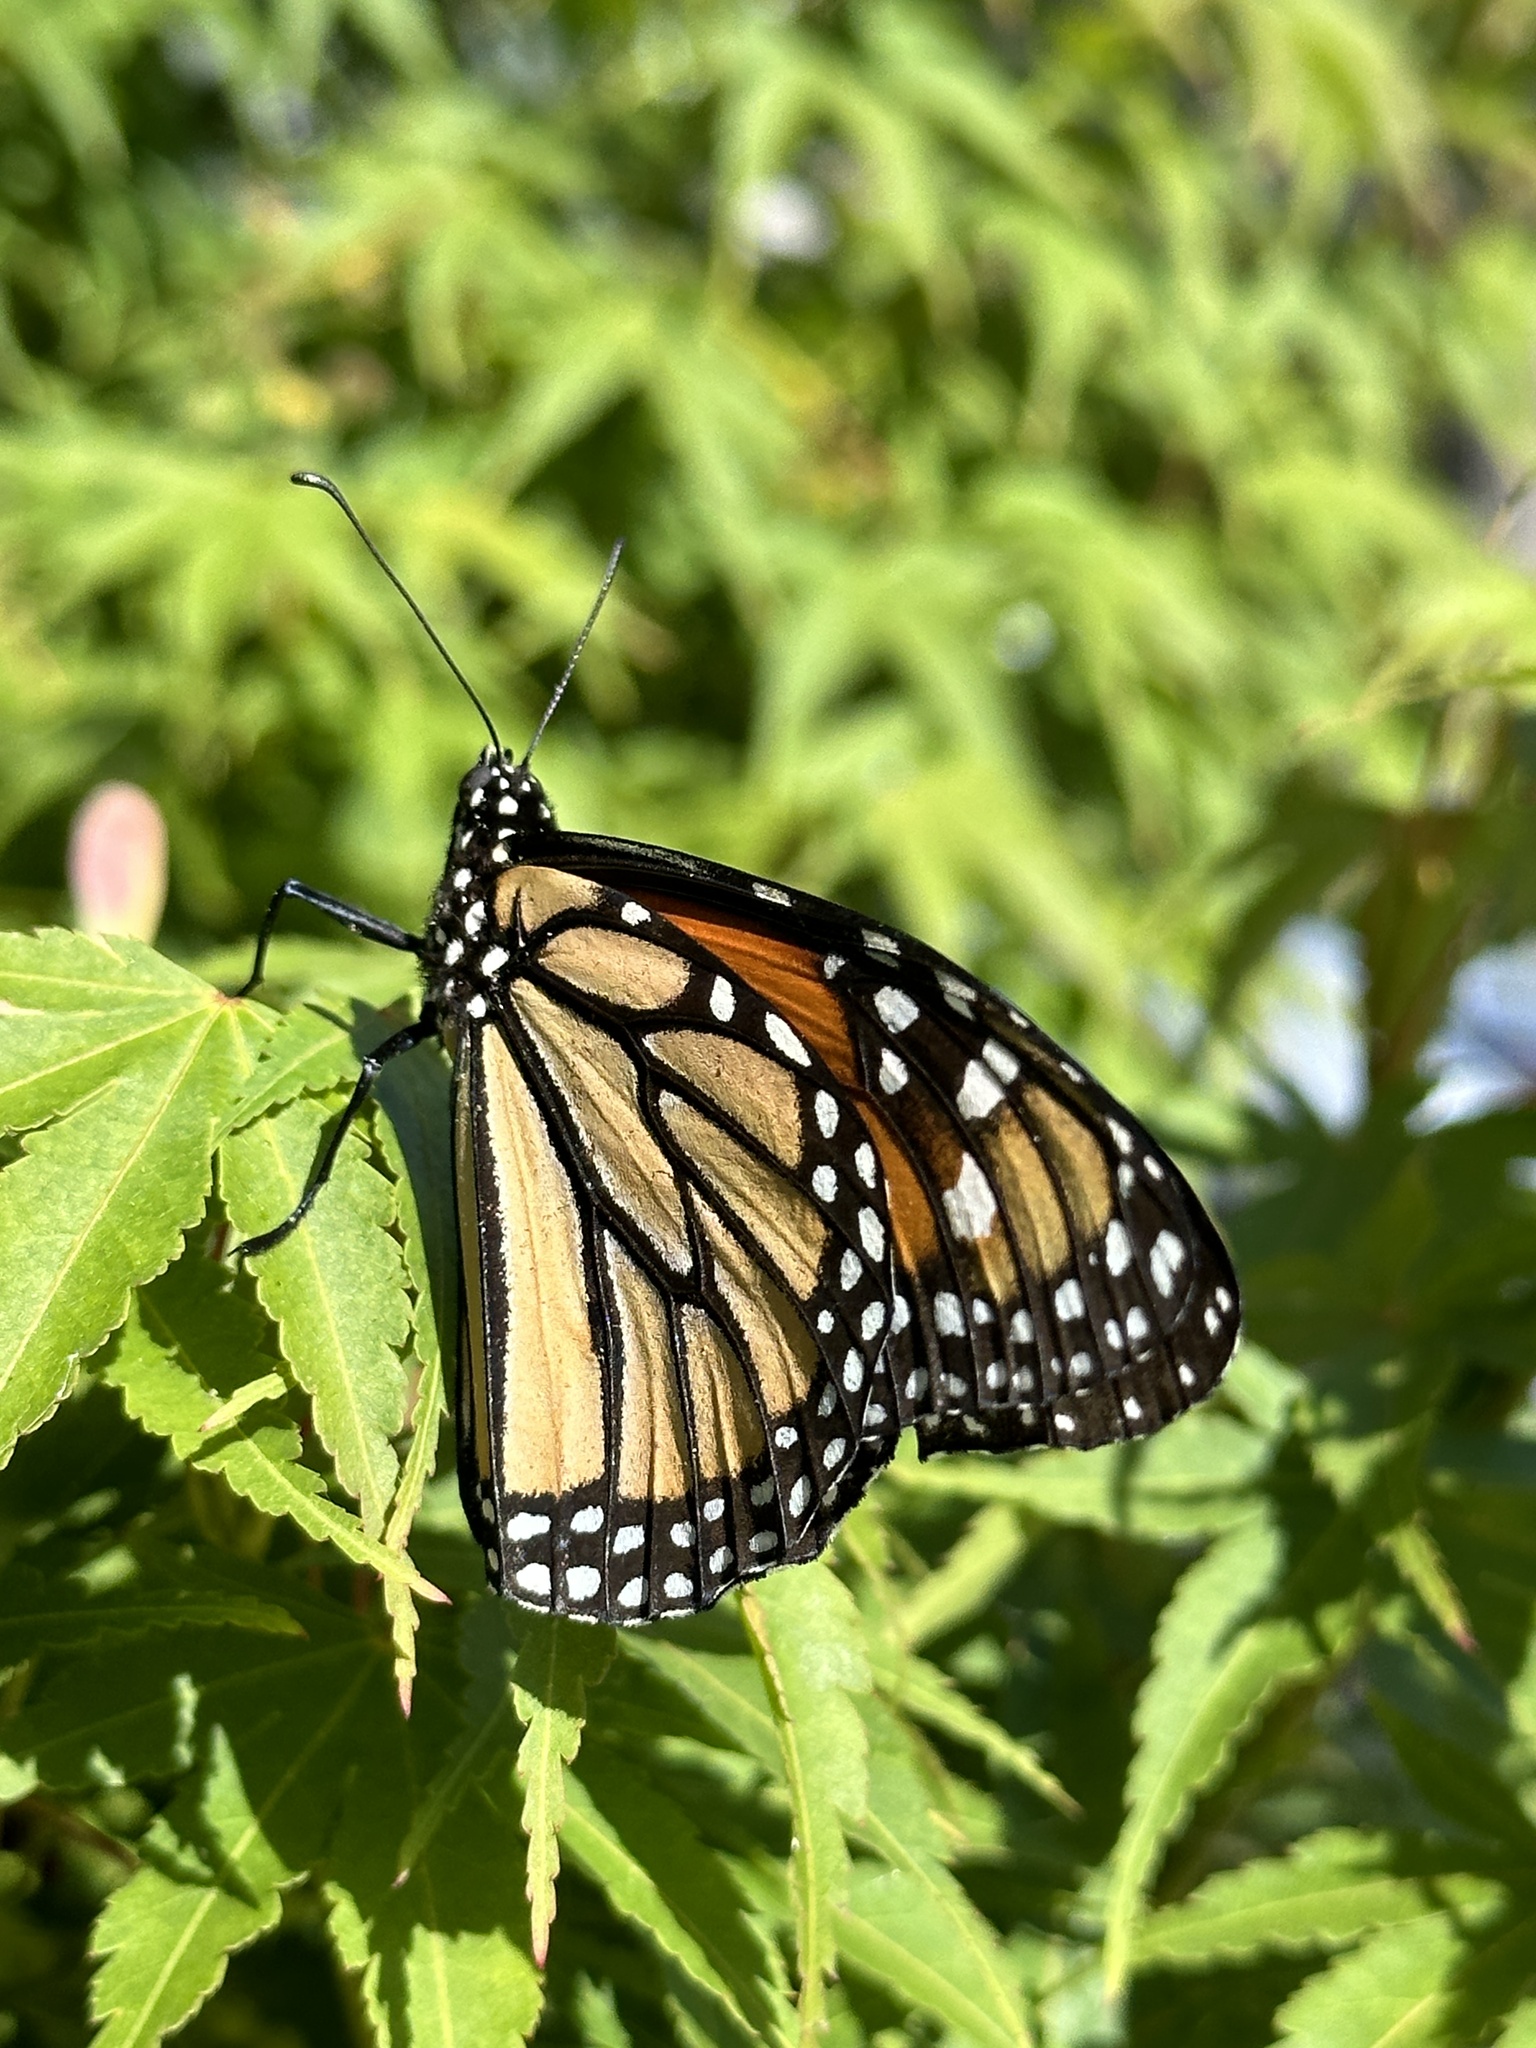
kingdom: Animalia
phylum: Arthropoda
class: Insecta
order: Lepidoptera
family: Nymphalidae
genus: Danaus
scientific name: Danaus plexippus
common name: Monarch
